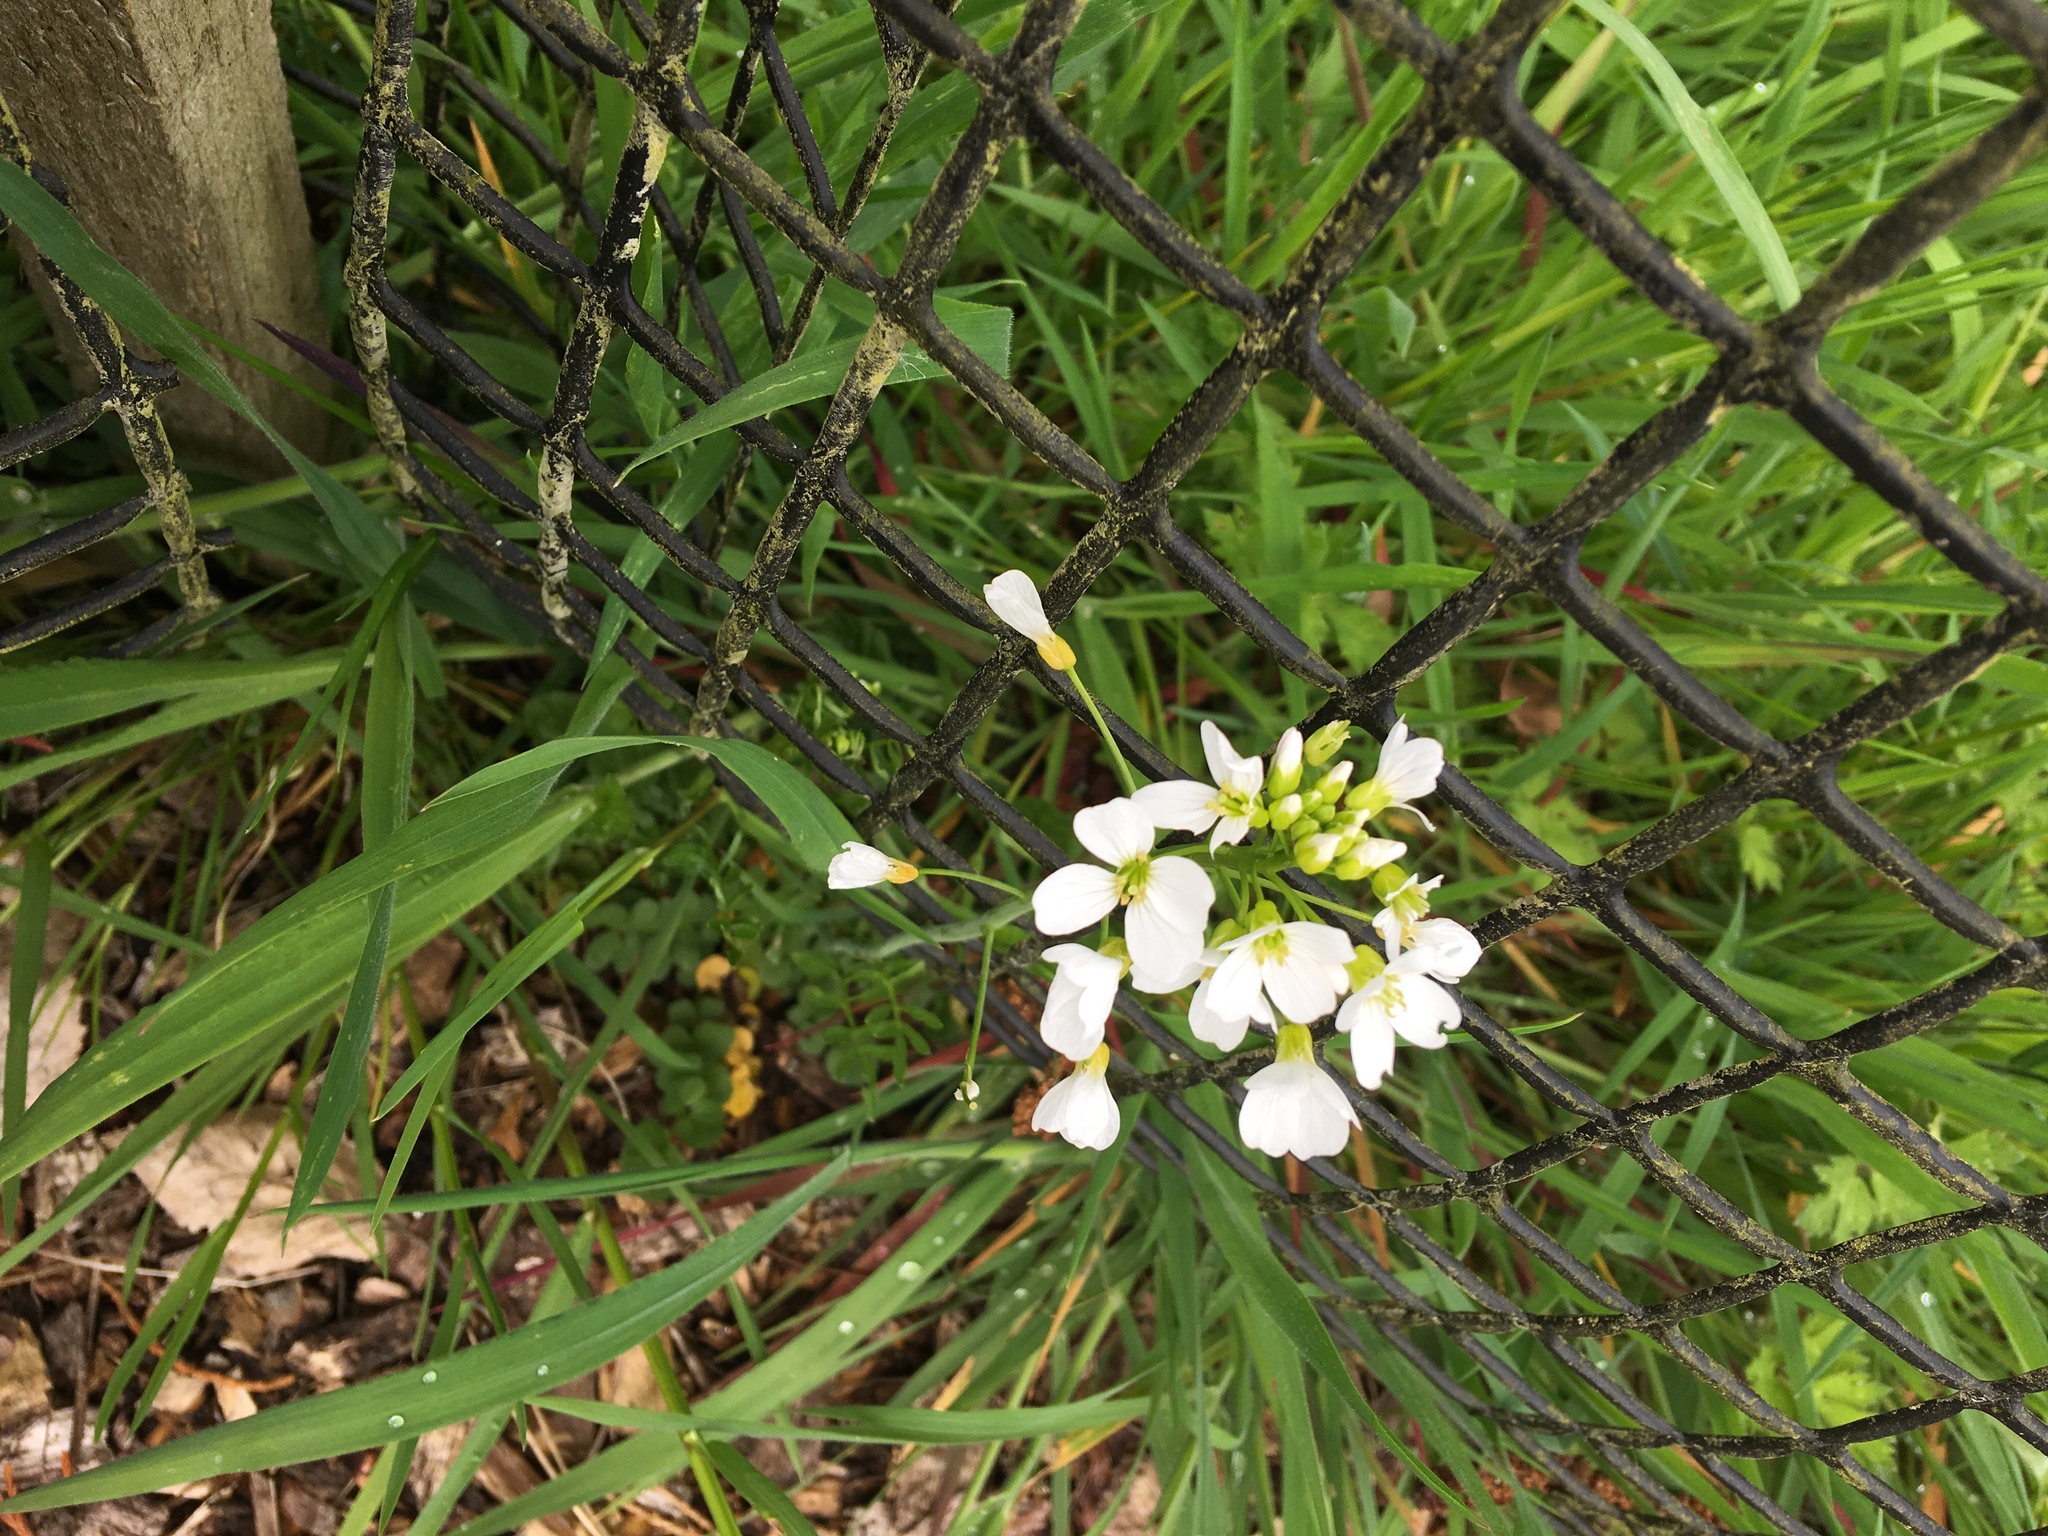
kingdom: Plantae
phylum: Tracheophyta
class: Magnoliopsida
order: Brassicales
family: Brassicaceae
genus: Cardamine
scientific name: Cardamine pratensis
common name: Cuckoo flower
